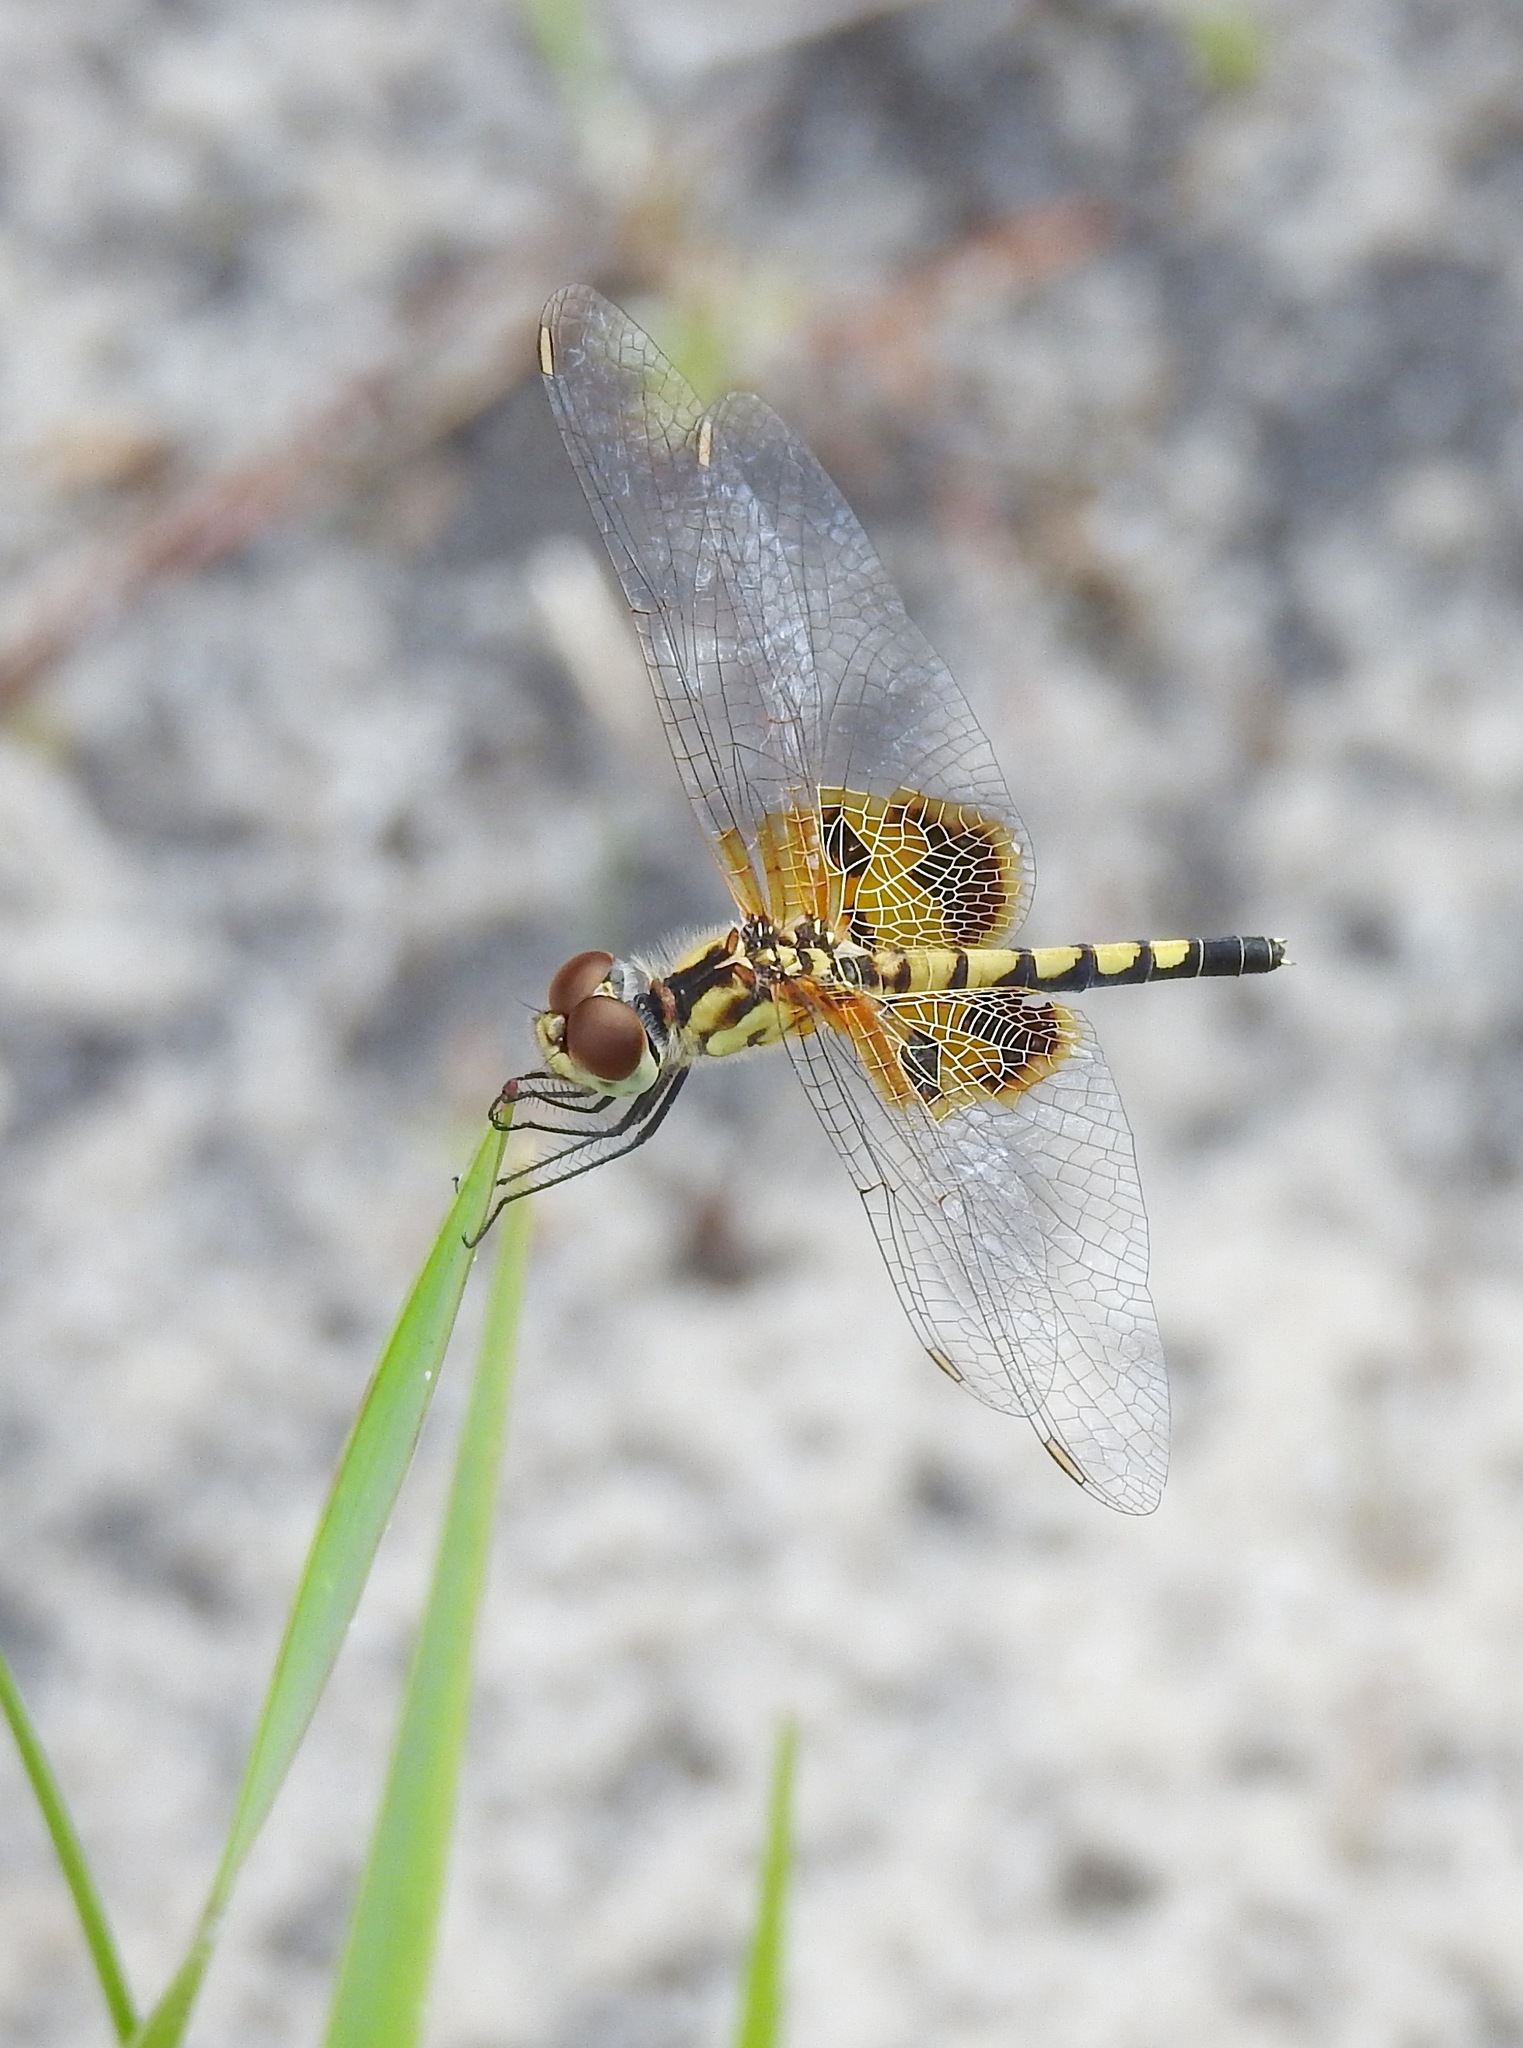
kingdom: Animalia
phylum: Arthropoda
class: Insecta
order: Odonata
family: Libellulidae
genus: Celithemis
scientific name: Celithemis amanda
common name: Amanda's pennant
